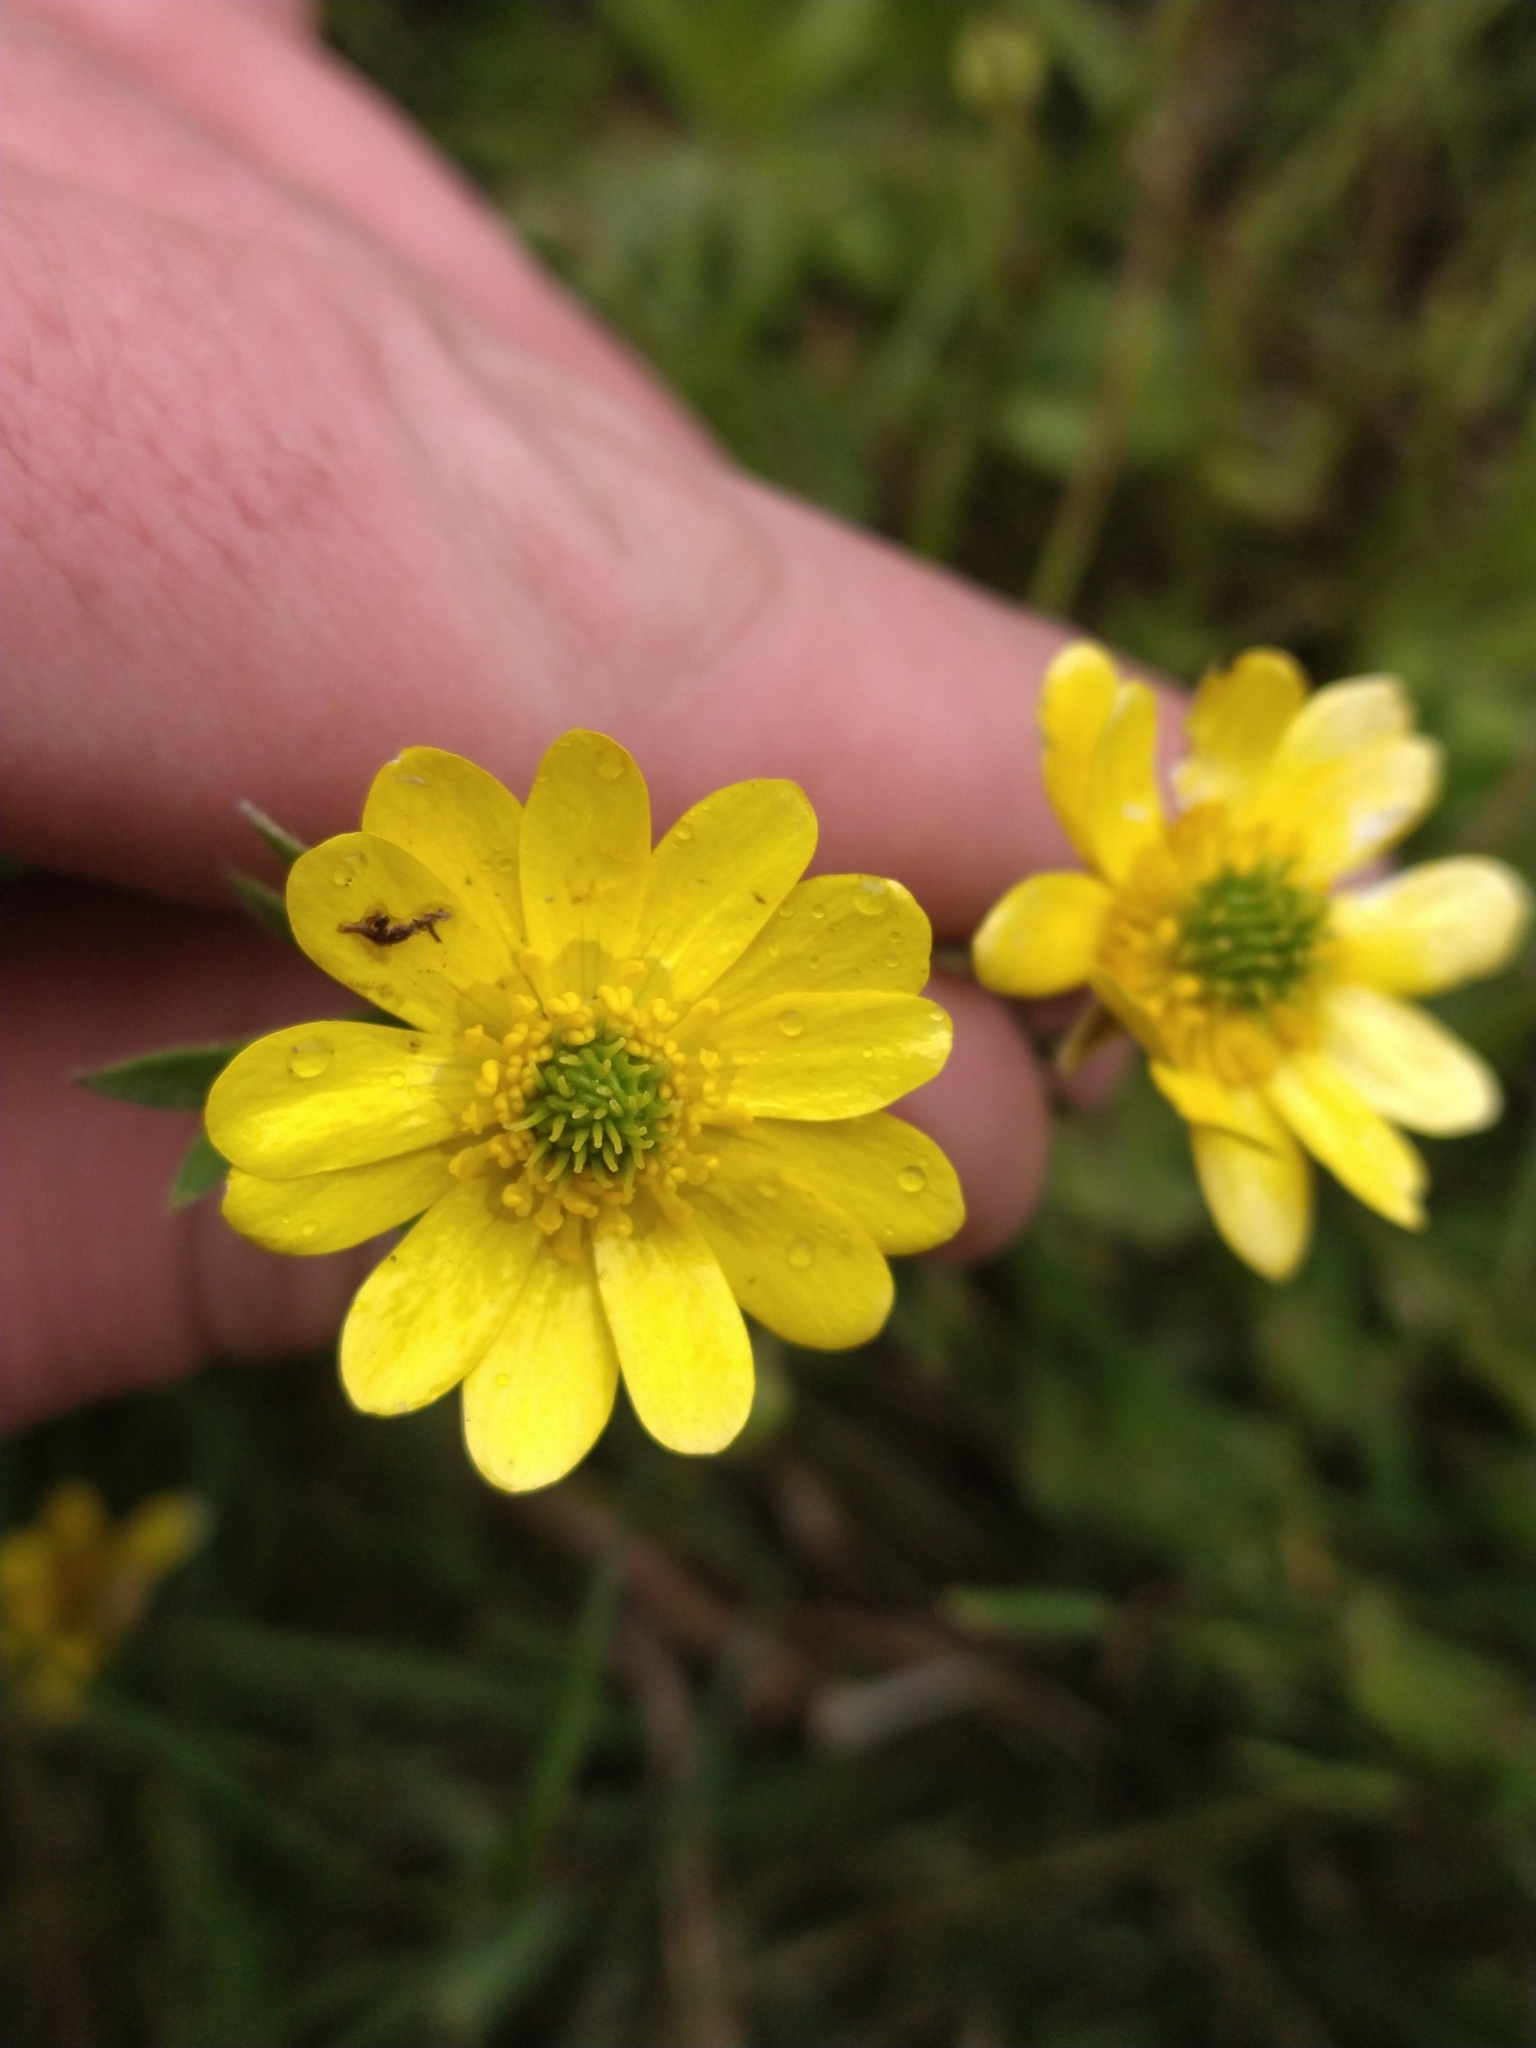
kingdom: Plantae
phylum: Tracheophyta
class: Magnoliopsida
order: Ranunculales
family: Ranunculaceae
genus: Ranunculus
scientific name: Ranunculus peduncularis
